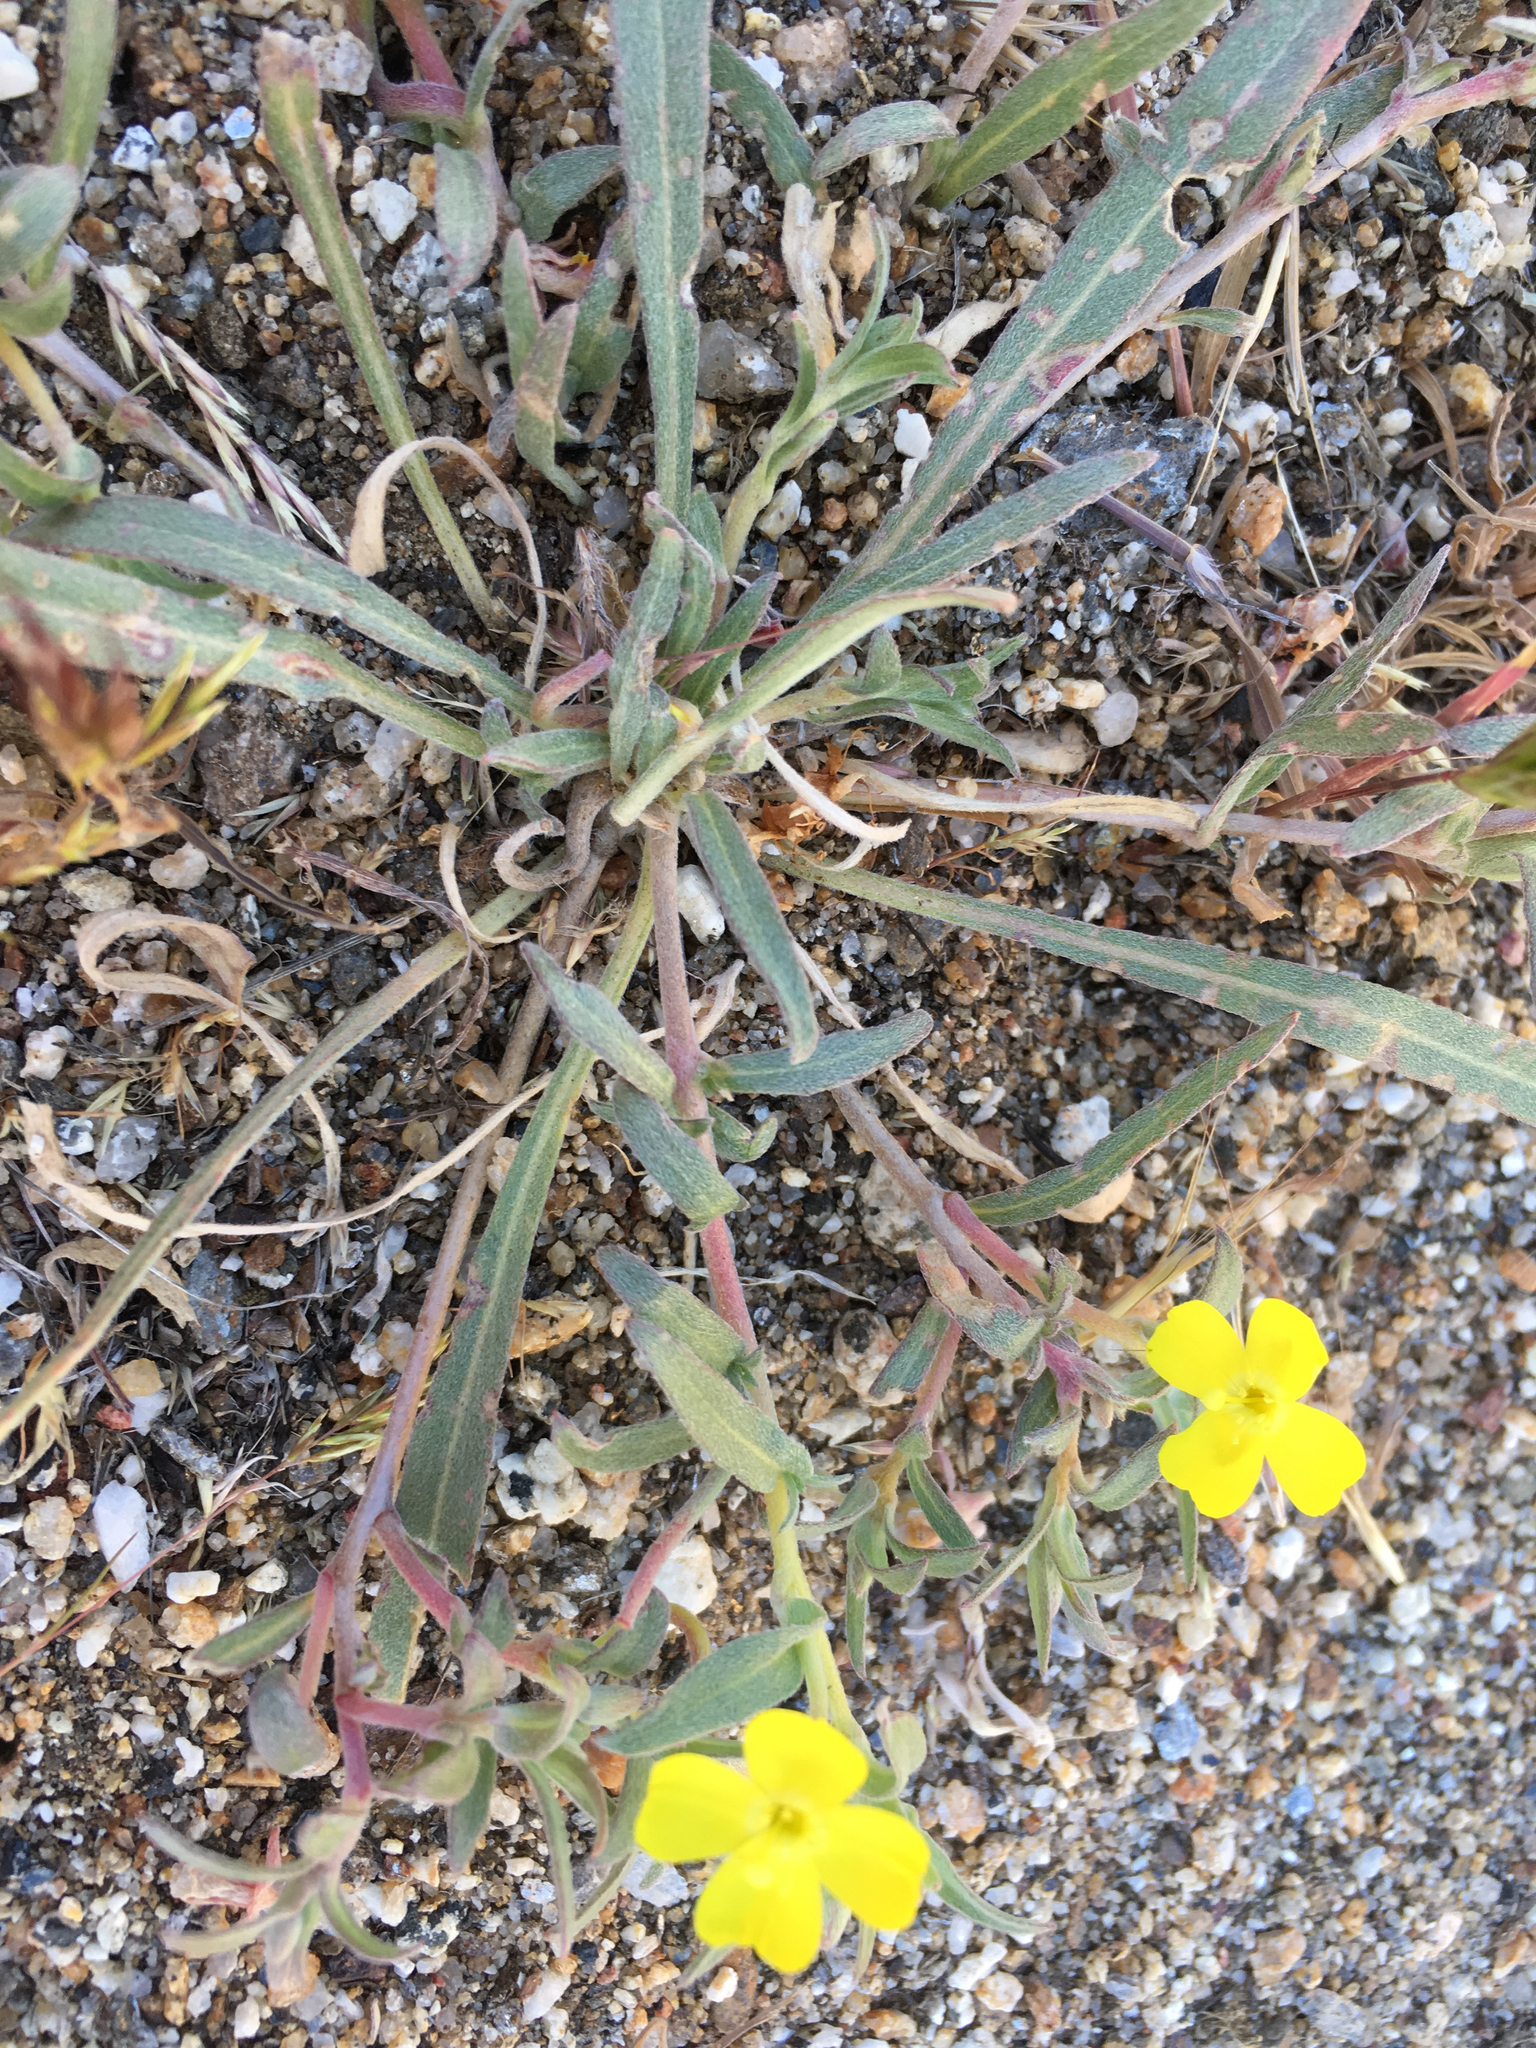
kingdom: Plantae
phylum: Tracheophyta
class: Magnoliopsida
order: Myrtales
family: Onagraceae
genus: Camissoniopsis
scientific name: Camissoniopsis pallida
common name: Paleyellow suncup
